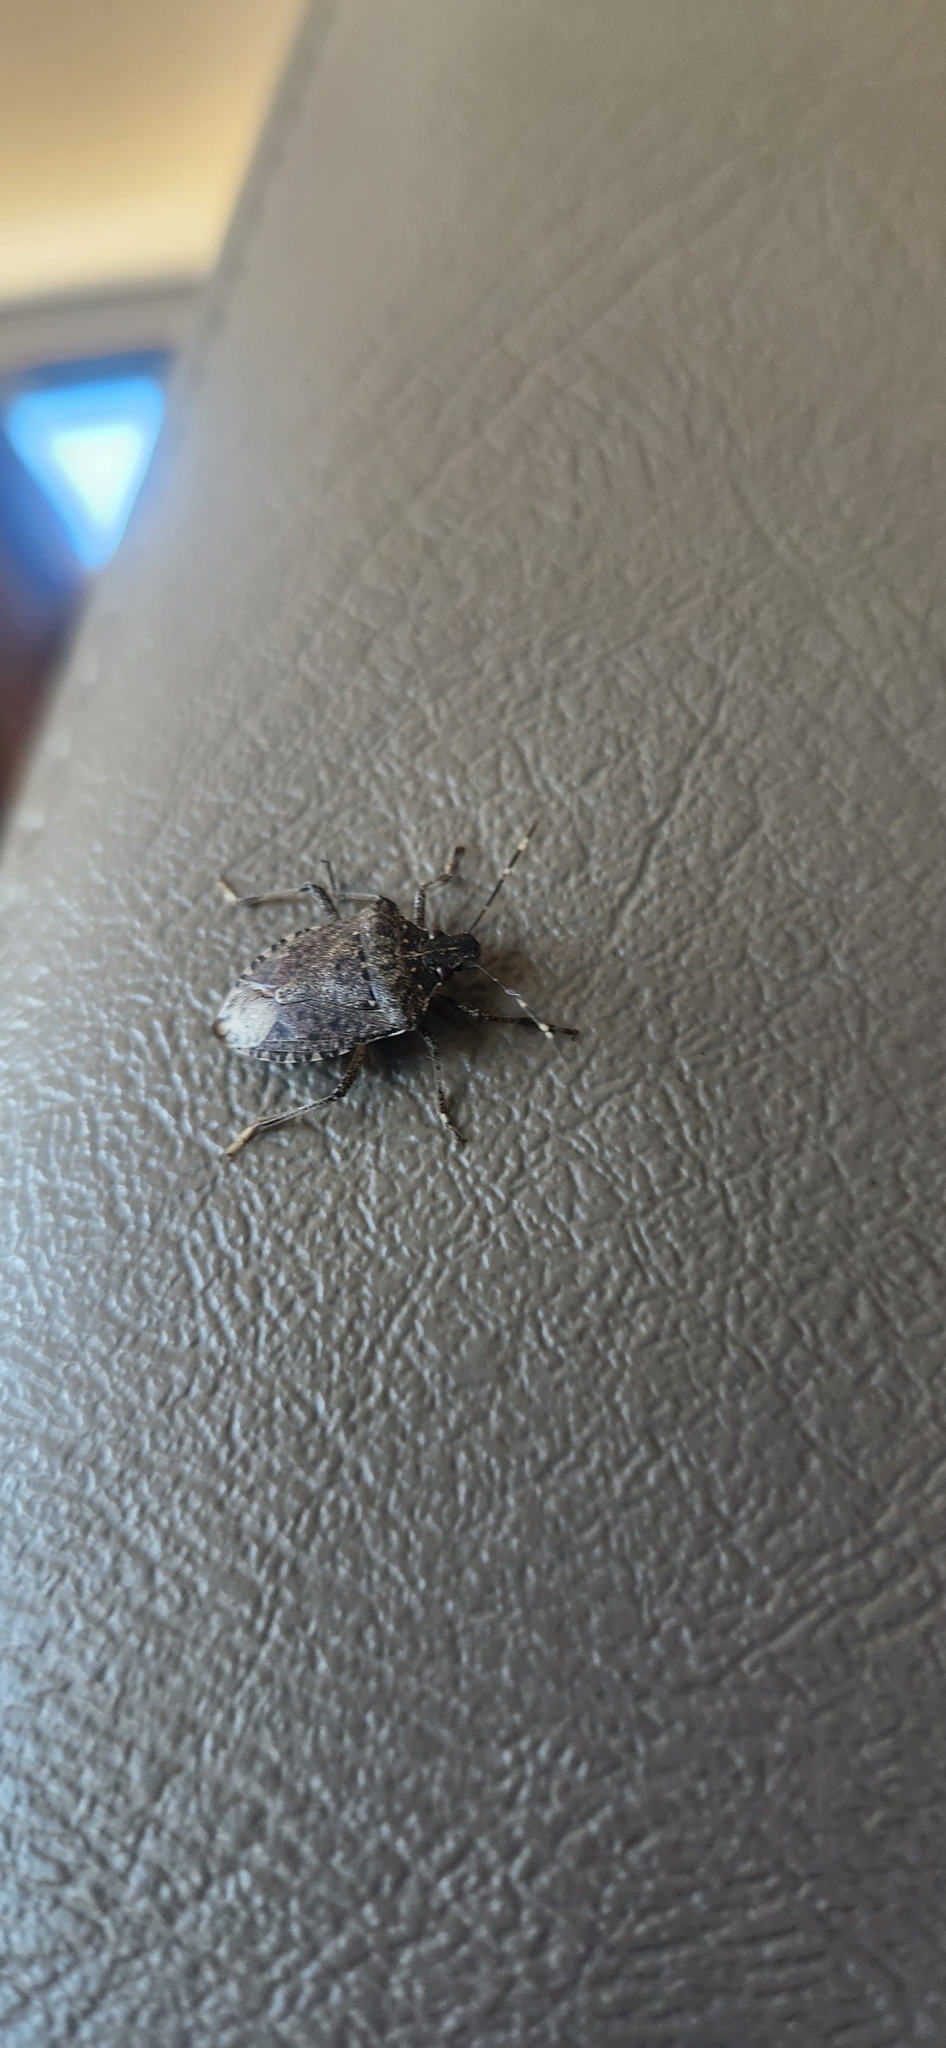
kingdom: Animalia
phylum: Arthropoda
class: Insecta
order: Hemiptera
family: Pentatomidae
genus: Halyomorpha
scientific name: Halyomorpha halys
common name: Brown marmorated stink bug
